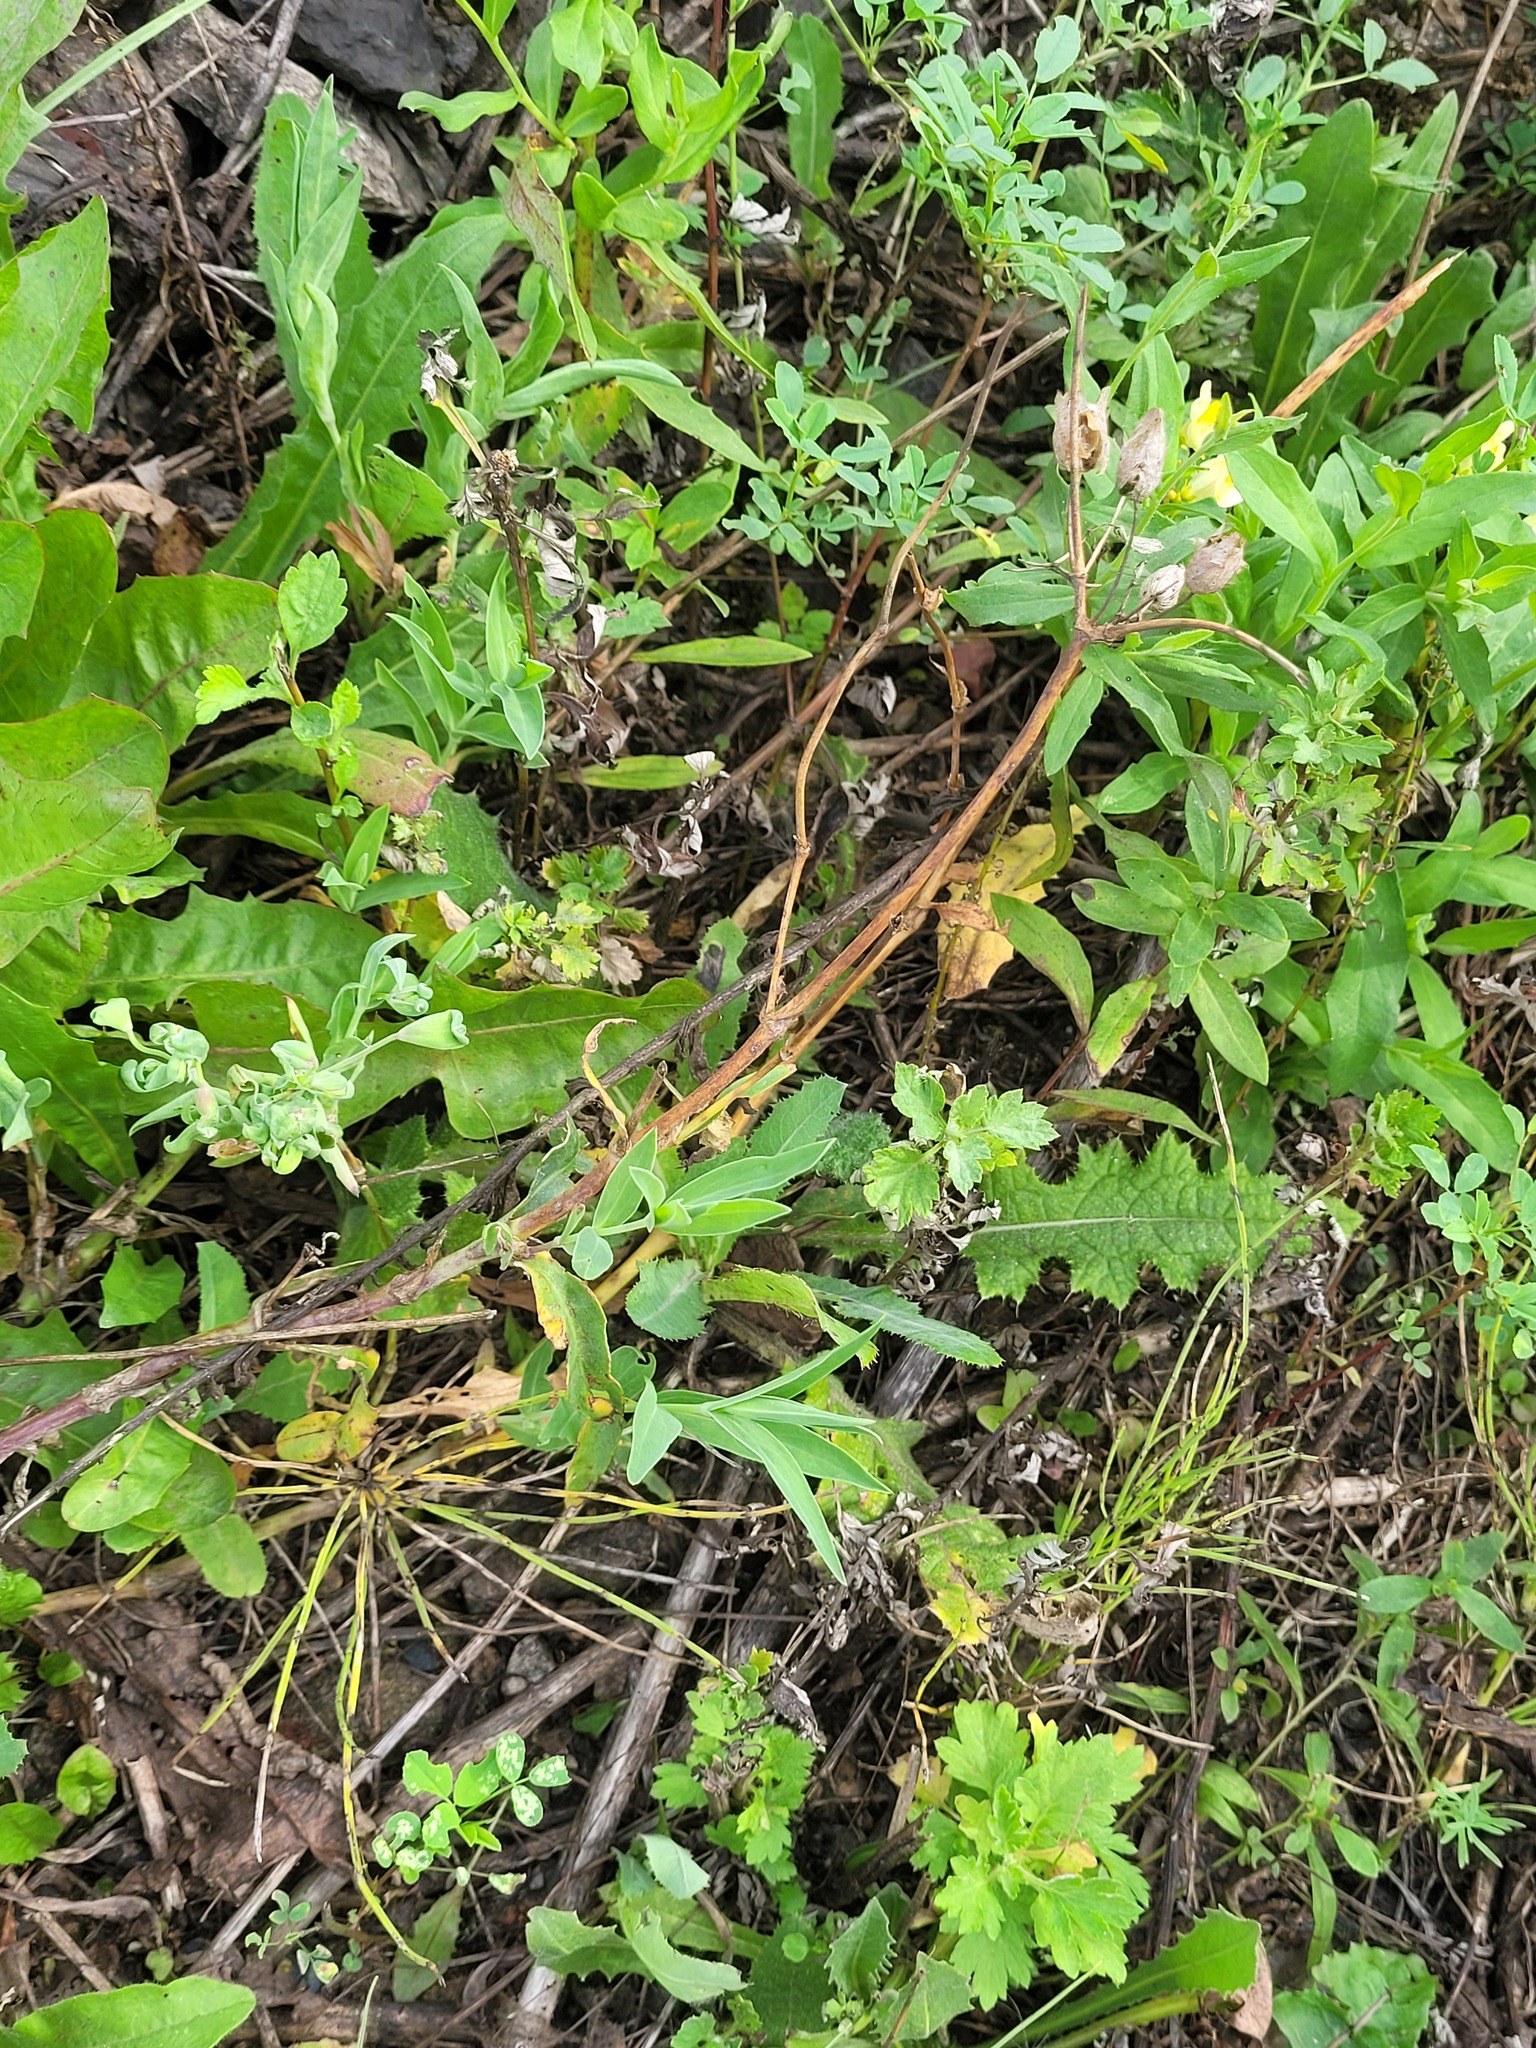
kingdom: Plantae
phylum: Tracheophyta
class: Magnoliopsida
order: Caryophyllales
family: Caryophyllaceae
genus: Silene
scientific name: Silene vulgaris
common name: Bladder campion
